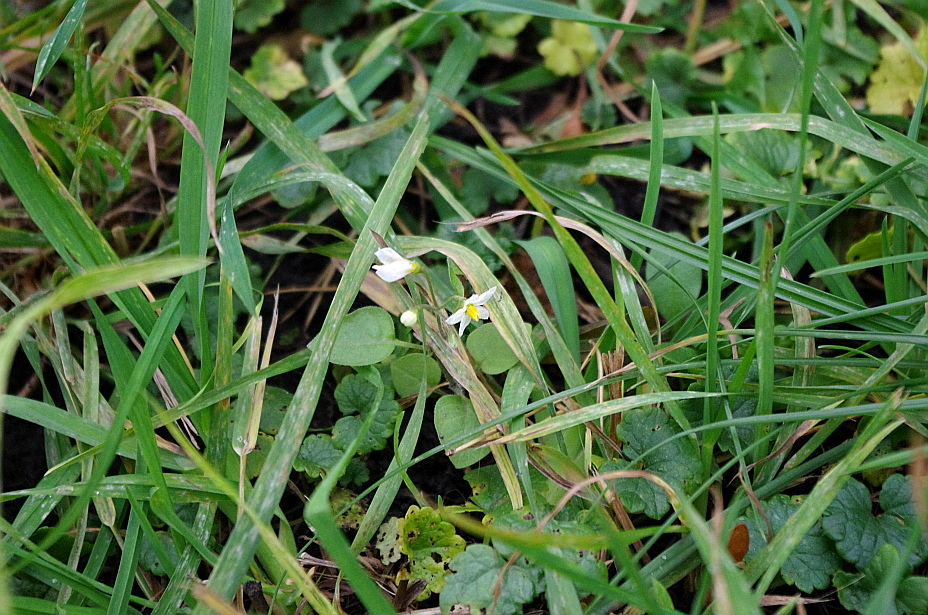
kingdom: Plantae
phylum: Tracheophyta
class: Magnoliopsida
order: Solanales
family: Solanaceae
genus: Solanum
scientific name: Solanum nigrum
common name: Black nightshade
